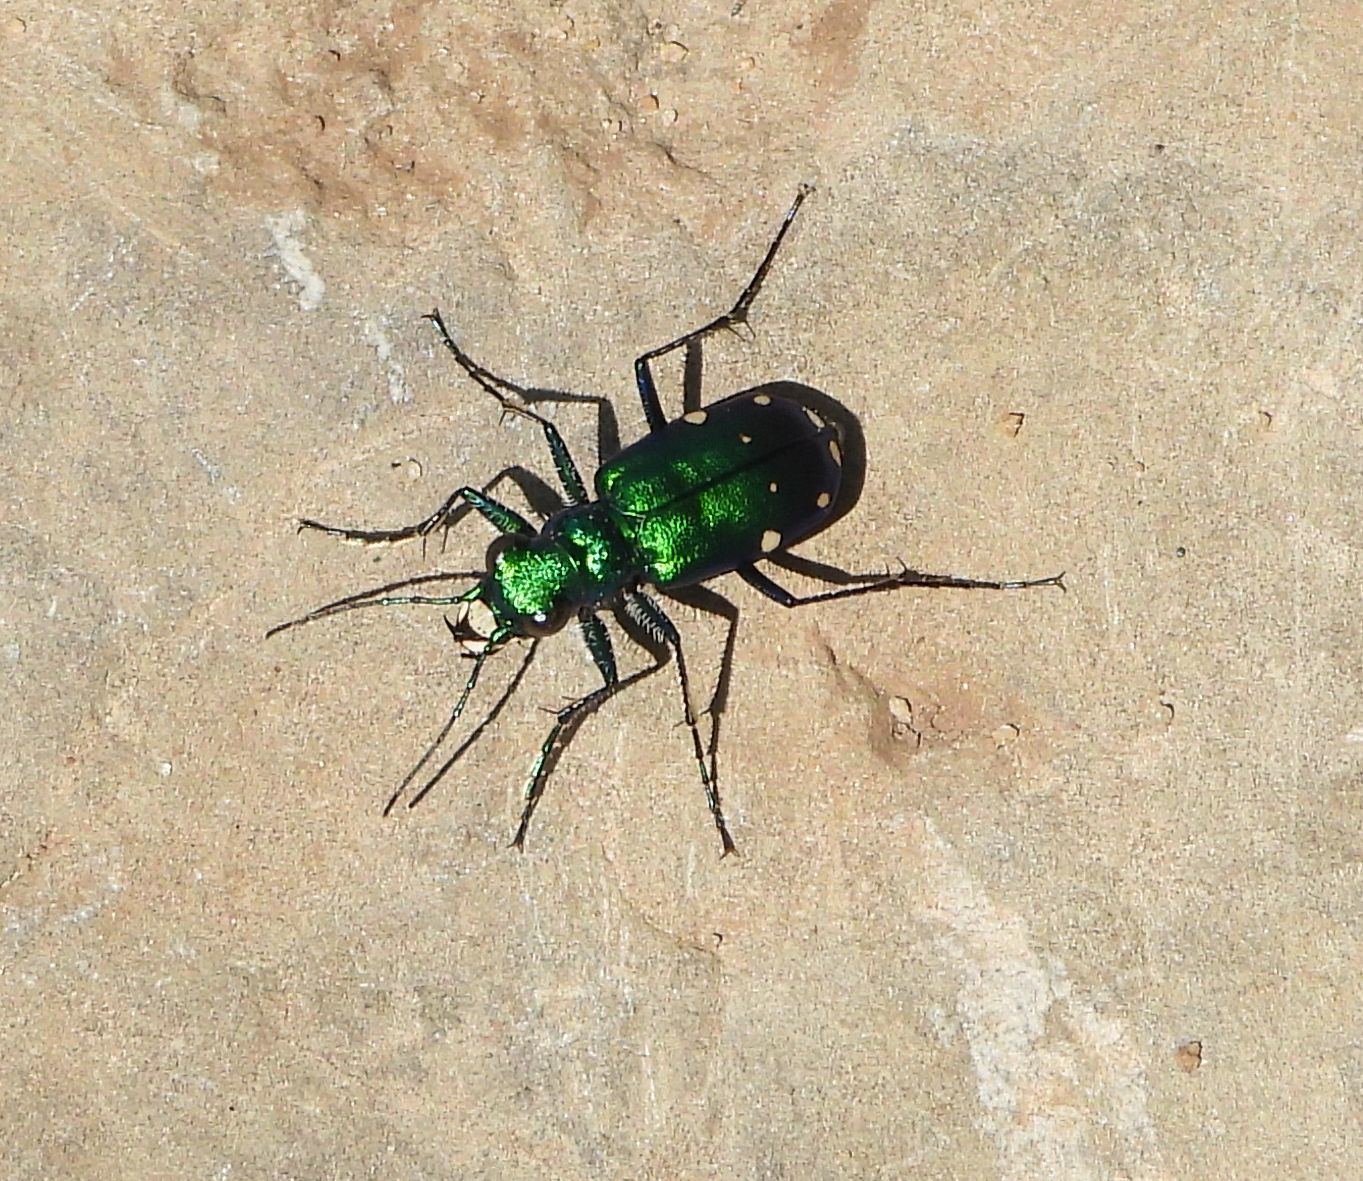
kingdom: Animalia
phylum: Arthropoda
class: Insecta
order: Coleoptera
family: Carabidae
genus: Cicindela
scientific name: Cicindela sexguttata
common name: Six-spotted tiger beetle
